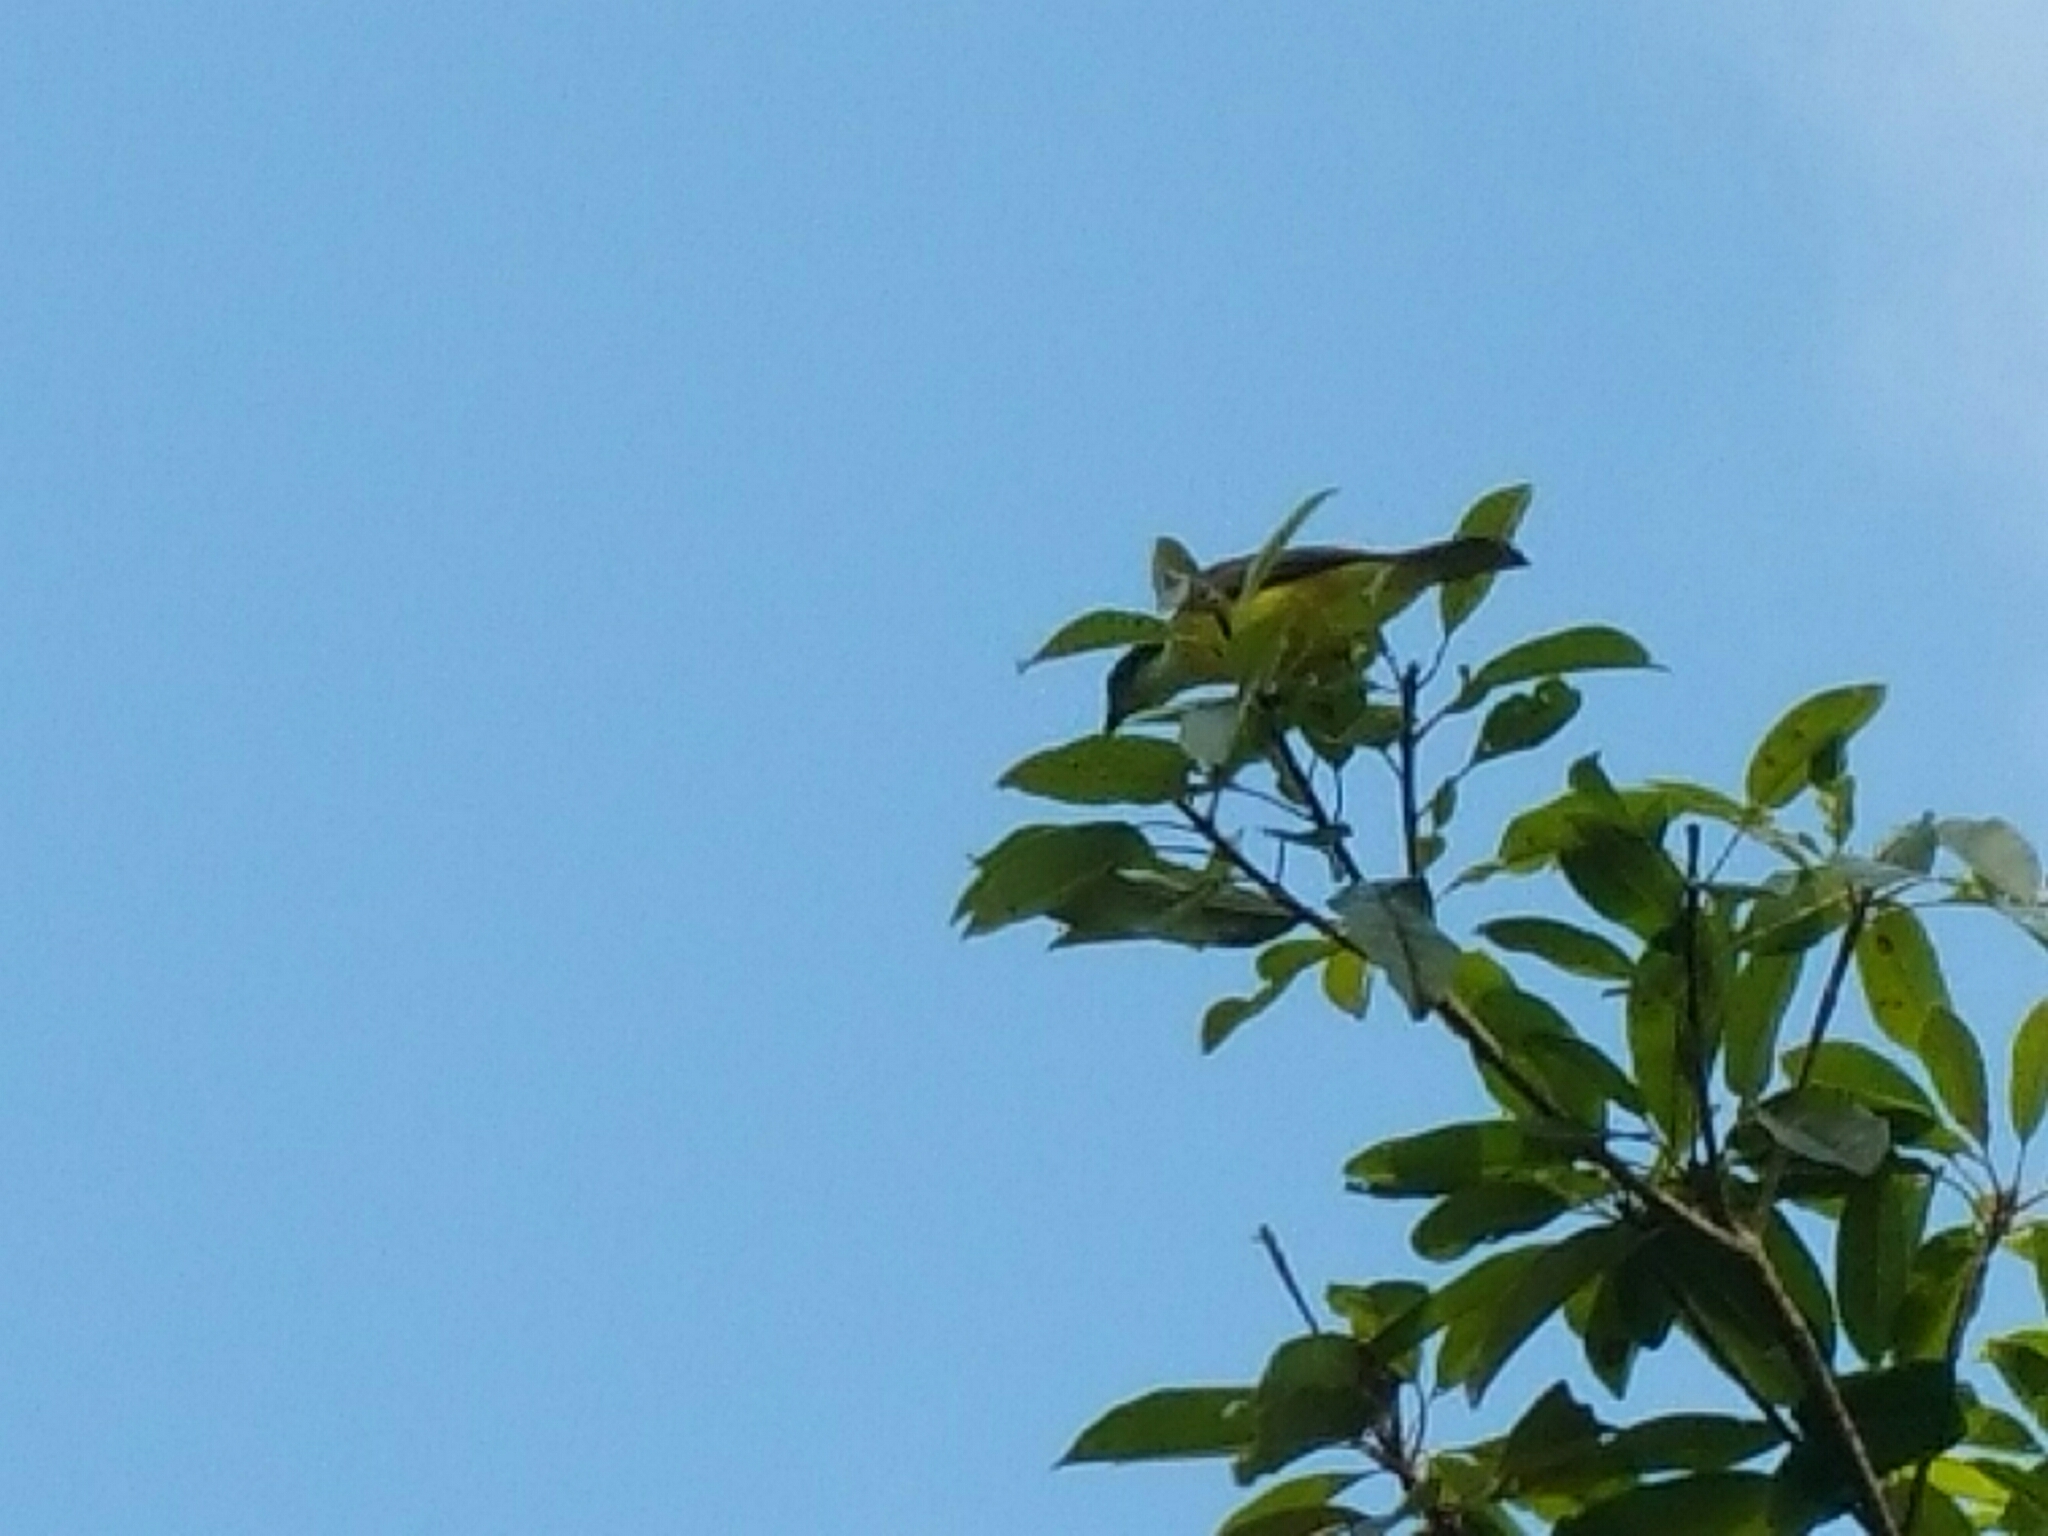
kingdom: Animalia
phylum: Chordata
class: Aves
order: Passeriformes
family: Tyrannidae
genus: Myiozetetes
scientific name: Myiozetetes similis
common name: Social flycatcher
